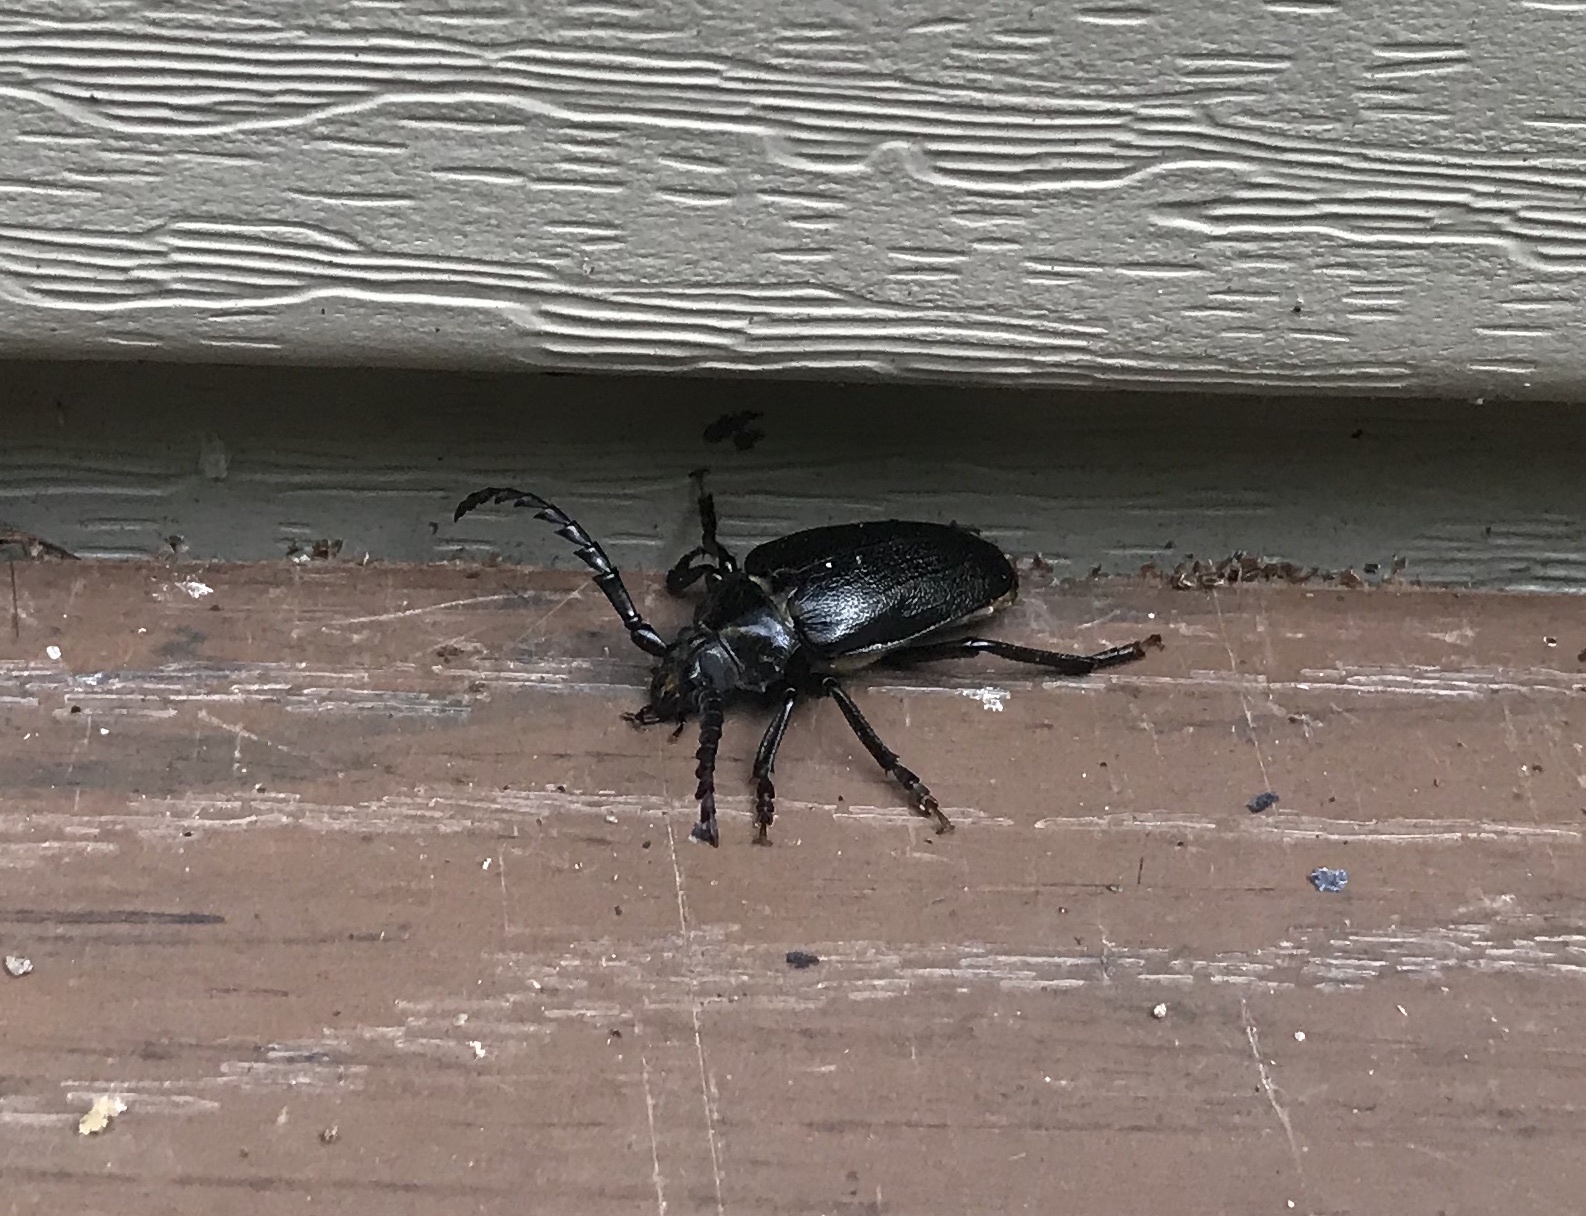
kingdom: Animalia
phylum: Arthropoda
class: Insecta
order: Coleoptera
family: Cerambycidae
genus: Prionus
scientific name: Prionus laticollis
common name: Broad necked prionus
